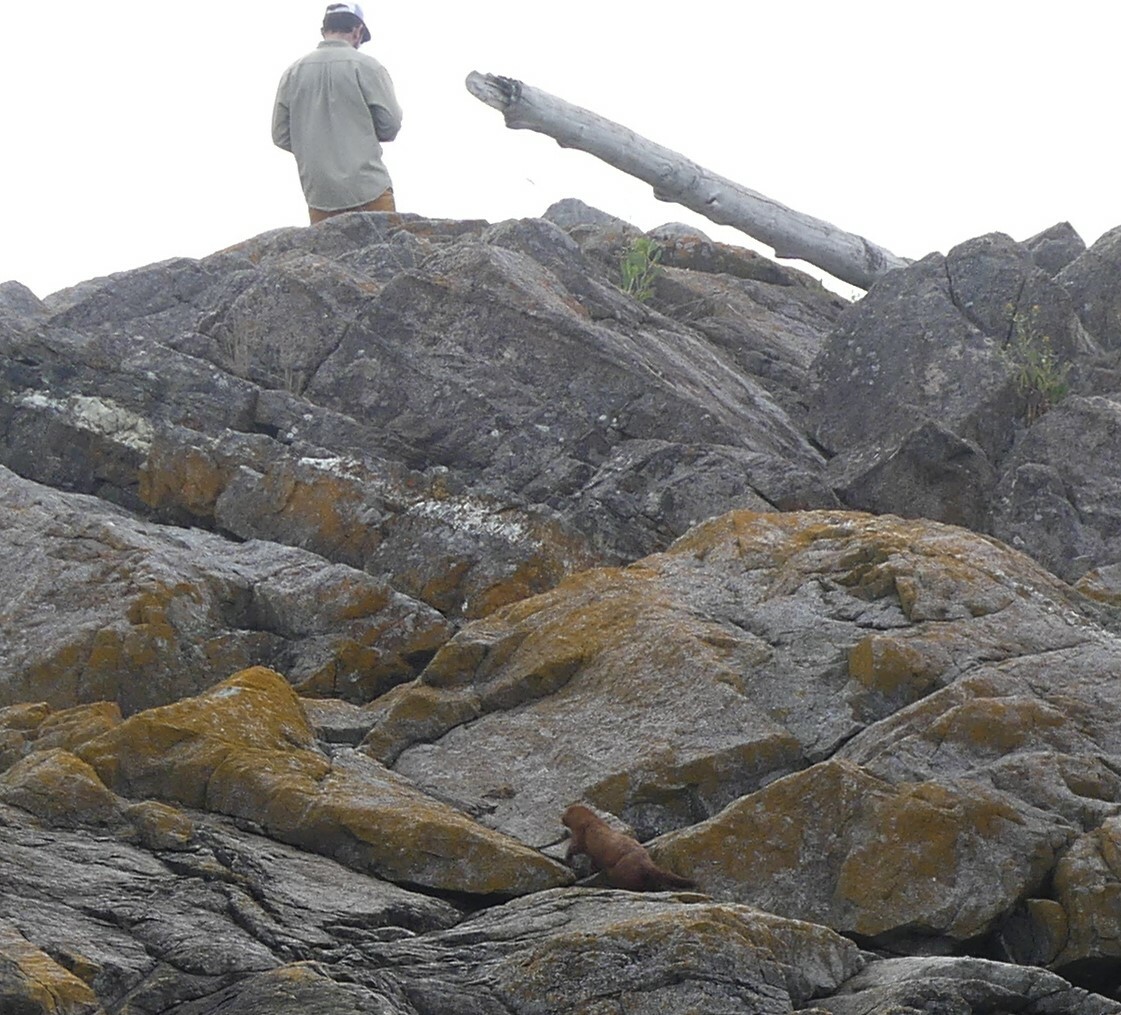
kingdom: Animalia
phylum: Chordata
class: Mammalia
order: Carnivora
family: Mustelidae
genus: Mustela
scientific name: Mustela
